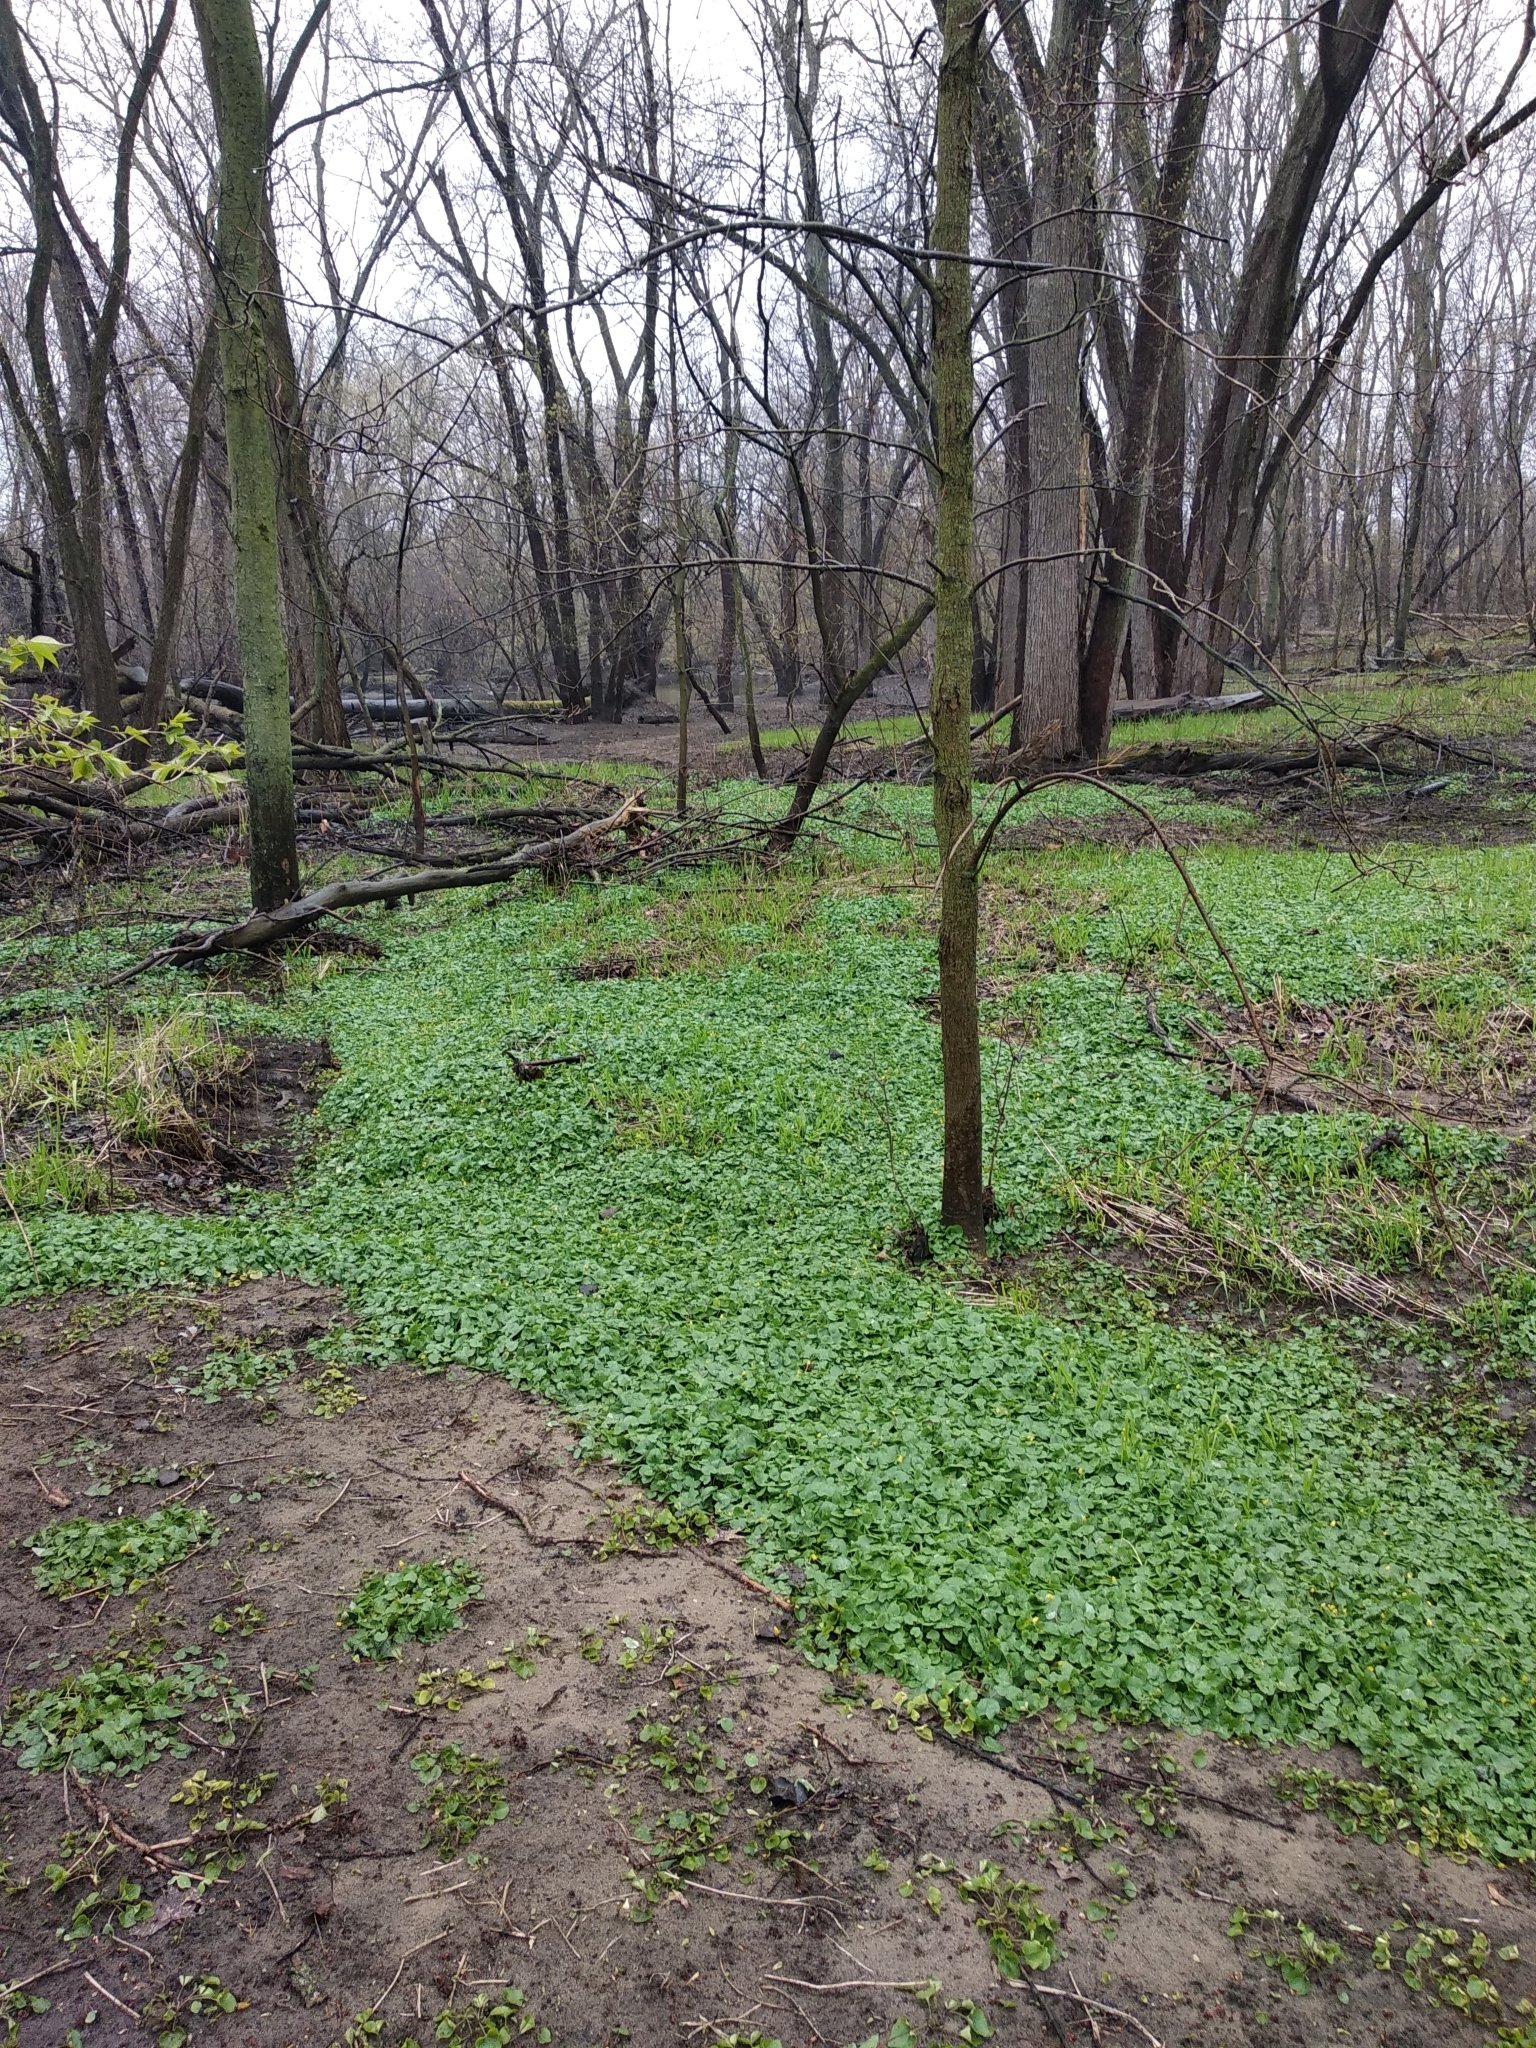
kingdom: Plantae
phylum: Tracheophyta
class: Magnoliopsida
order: Ranunculales
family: Ranunculaceae
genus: Ficaria
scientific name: Ficaria verna
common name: Lesser celandine
